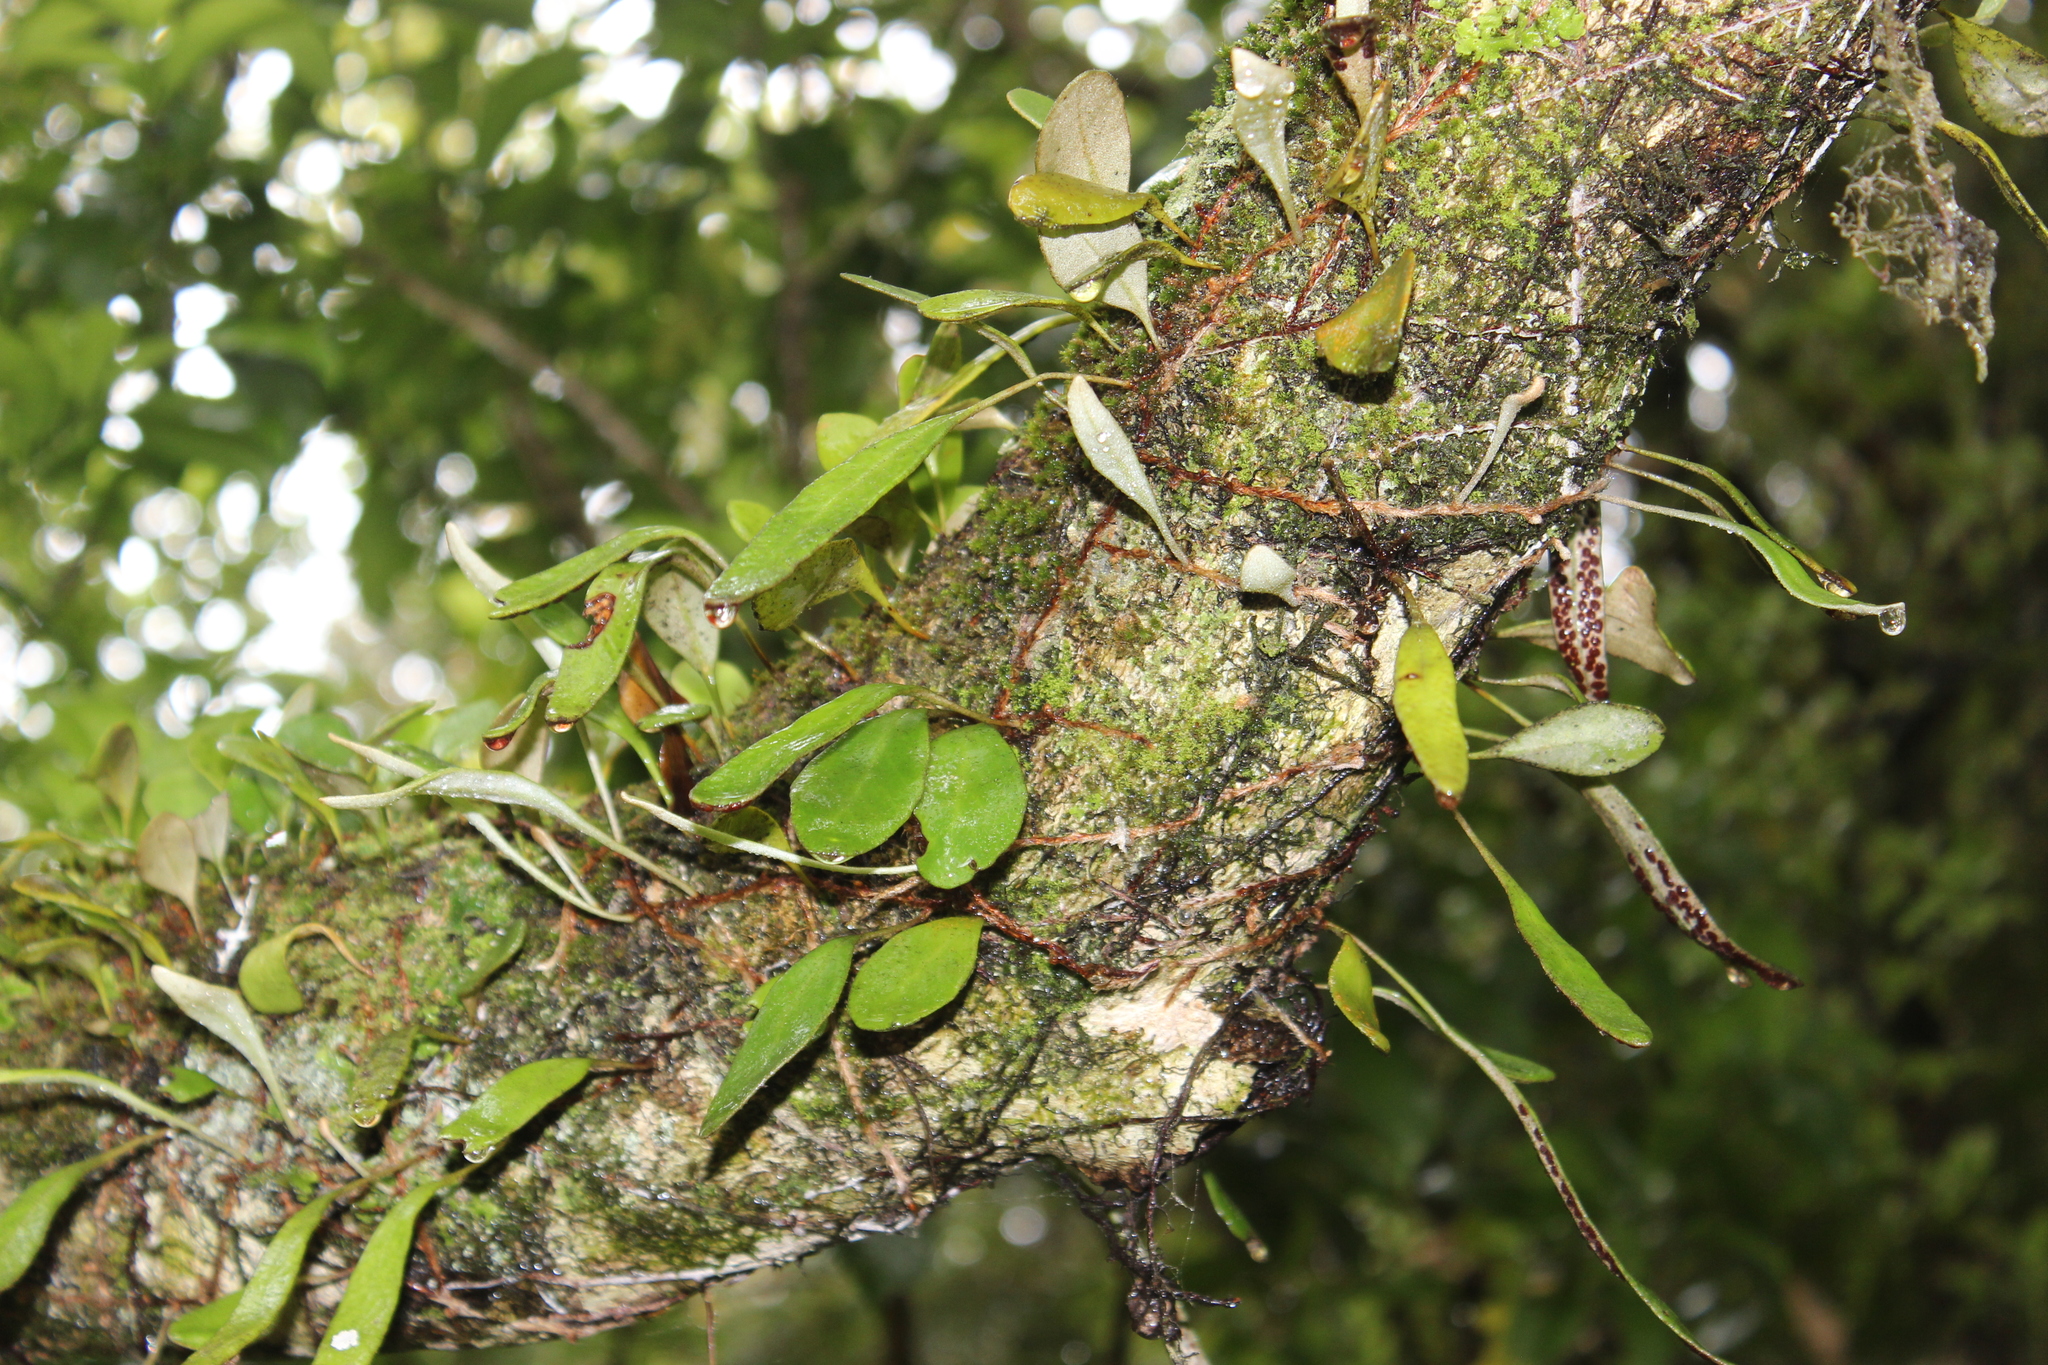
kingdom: Plantae
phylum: Tracheophyta
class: Polypodiopsida
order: Polypodiales
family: Polypodiaceae
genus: Pyrrosia
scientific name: Pyrrosia eleagnifolia
